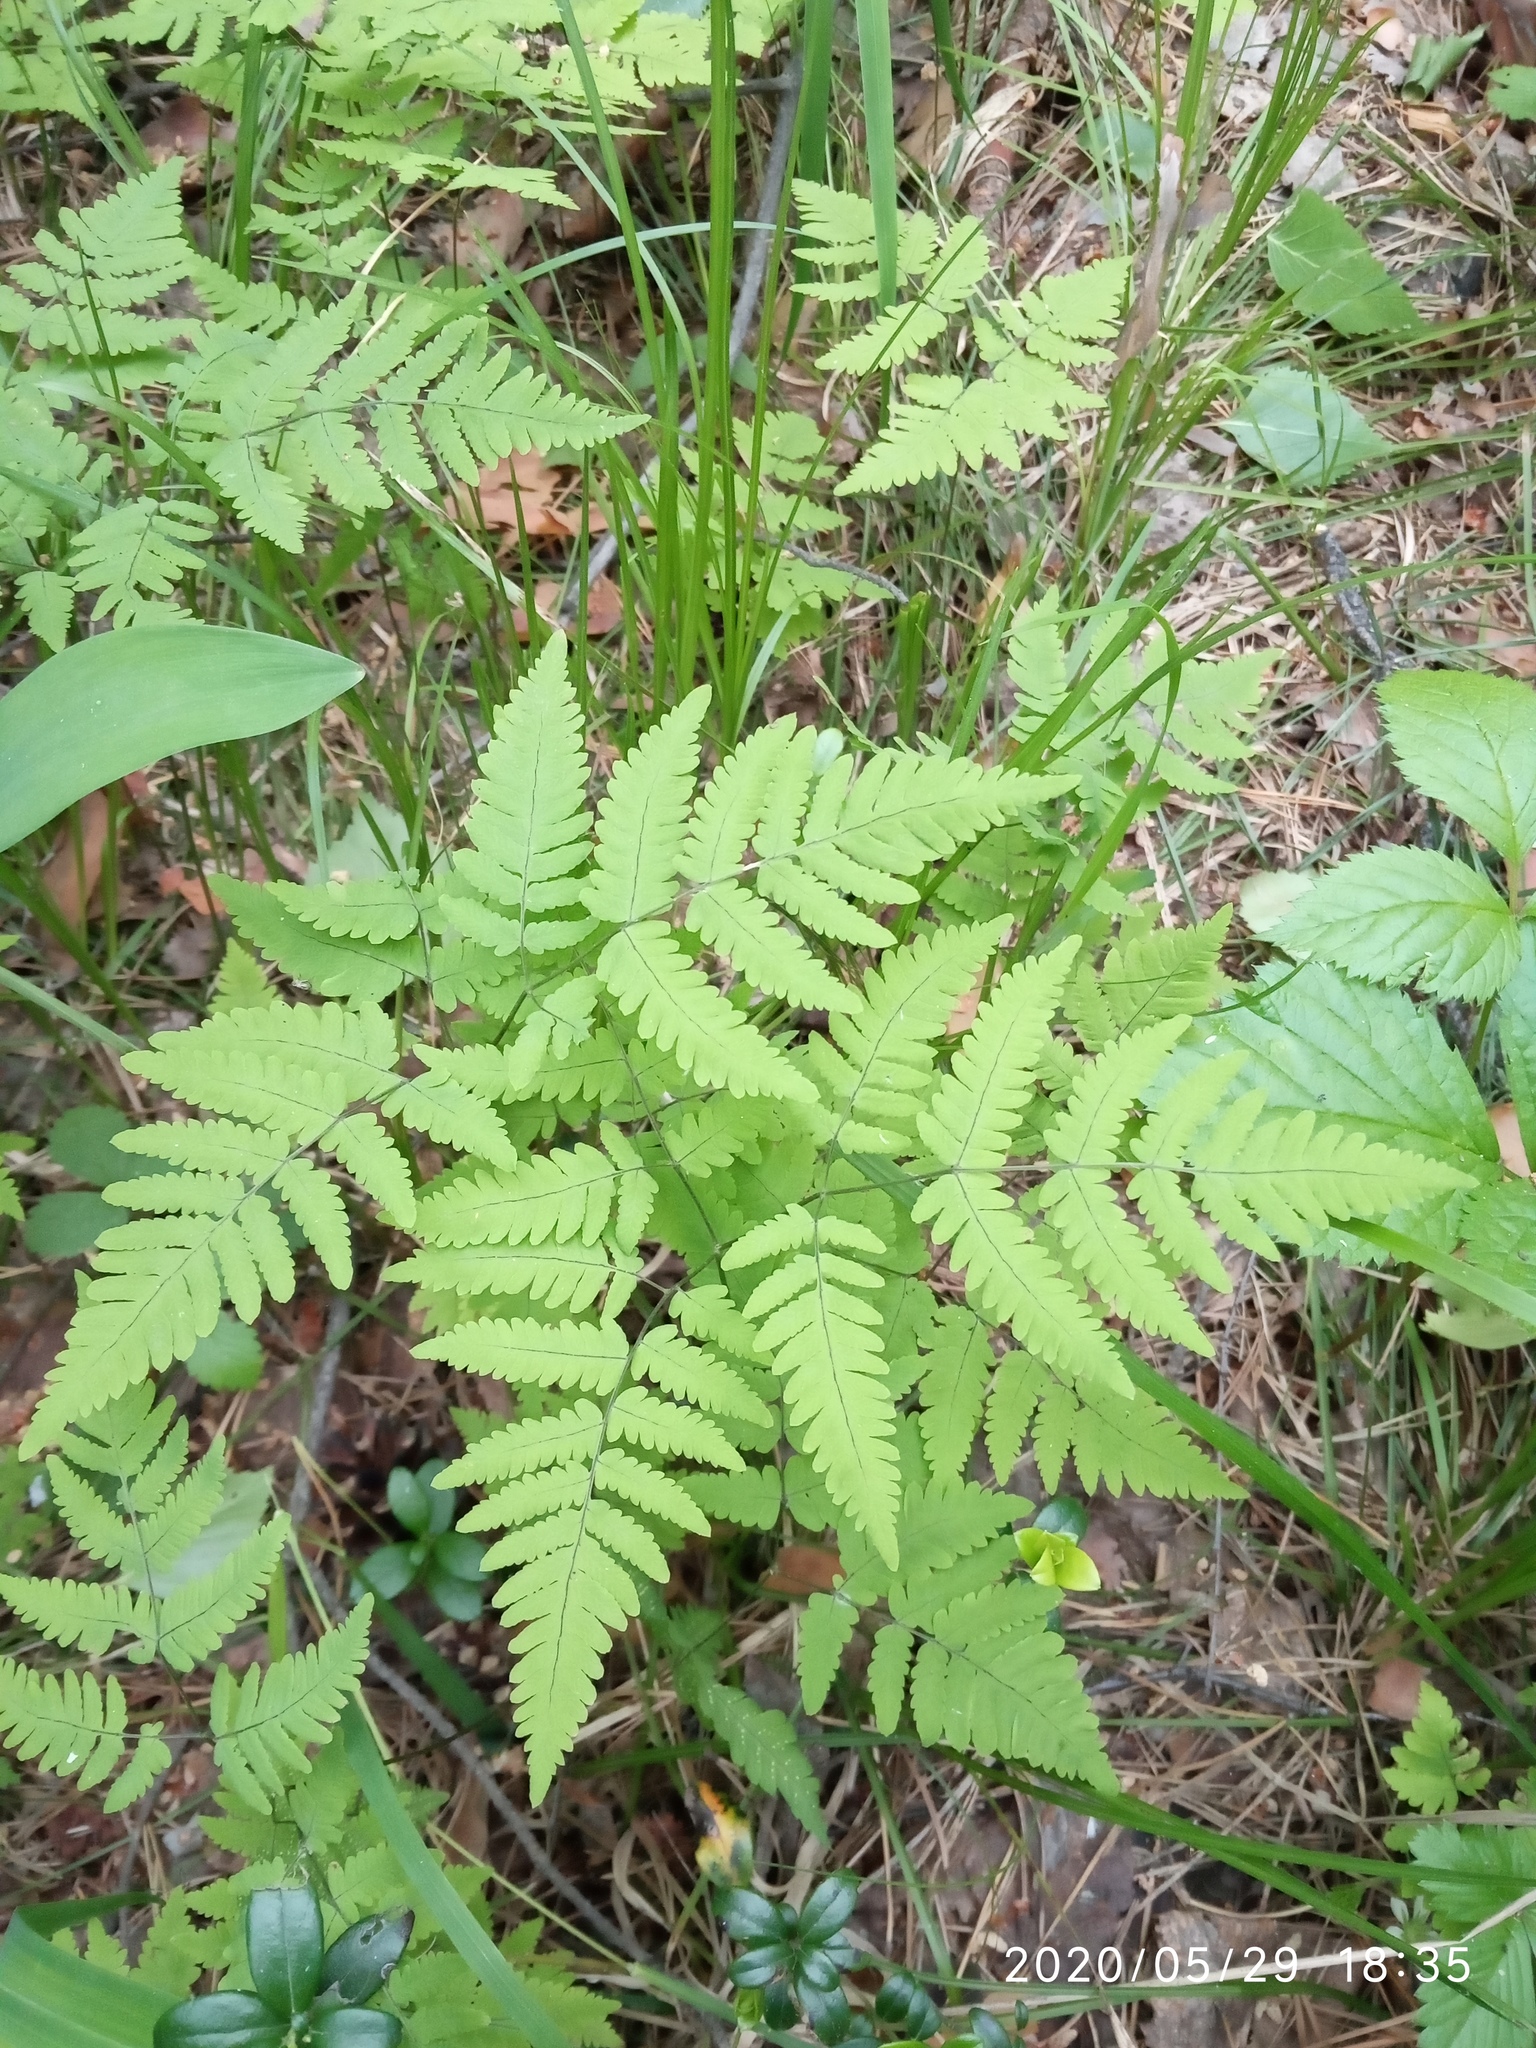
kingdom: Plantae
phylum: Tracheophyta
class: Polypodiopsida
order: Polypodiales
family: Cystopteridaceae
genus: Gymnocarpium
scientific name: Gymnocarpium dryopteris
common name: Oak fern
